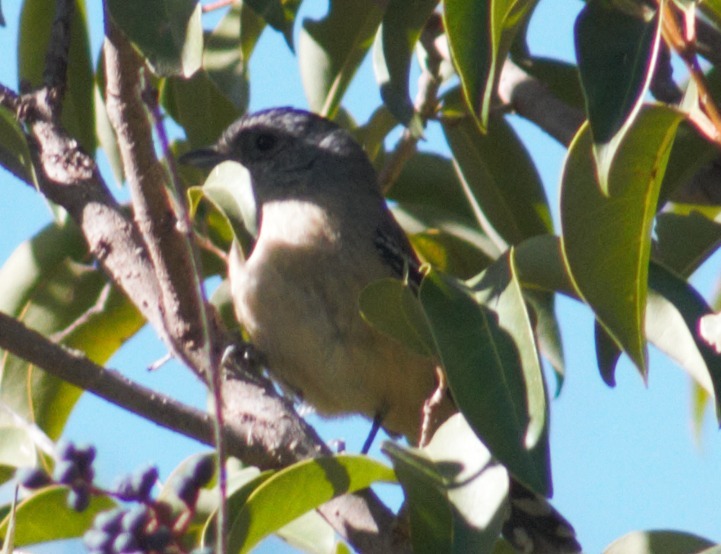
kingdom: Animalia
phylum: Chordata
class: Aves
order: Passeriformes
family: Thamnophilidae
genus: Thamnophilus
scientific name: Thamnophilus caerulescens
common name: Variable antshrike
